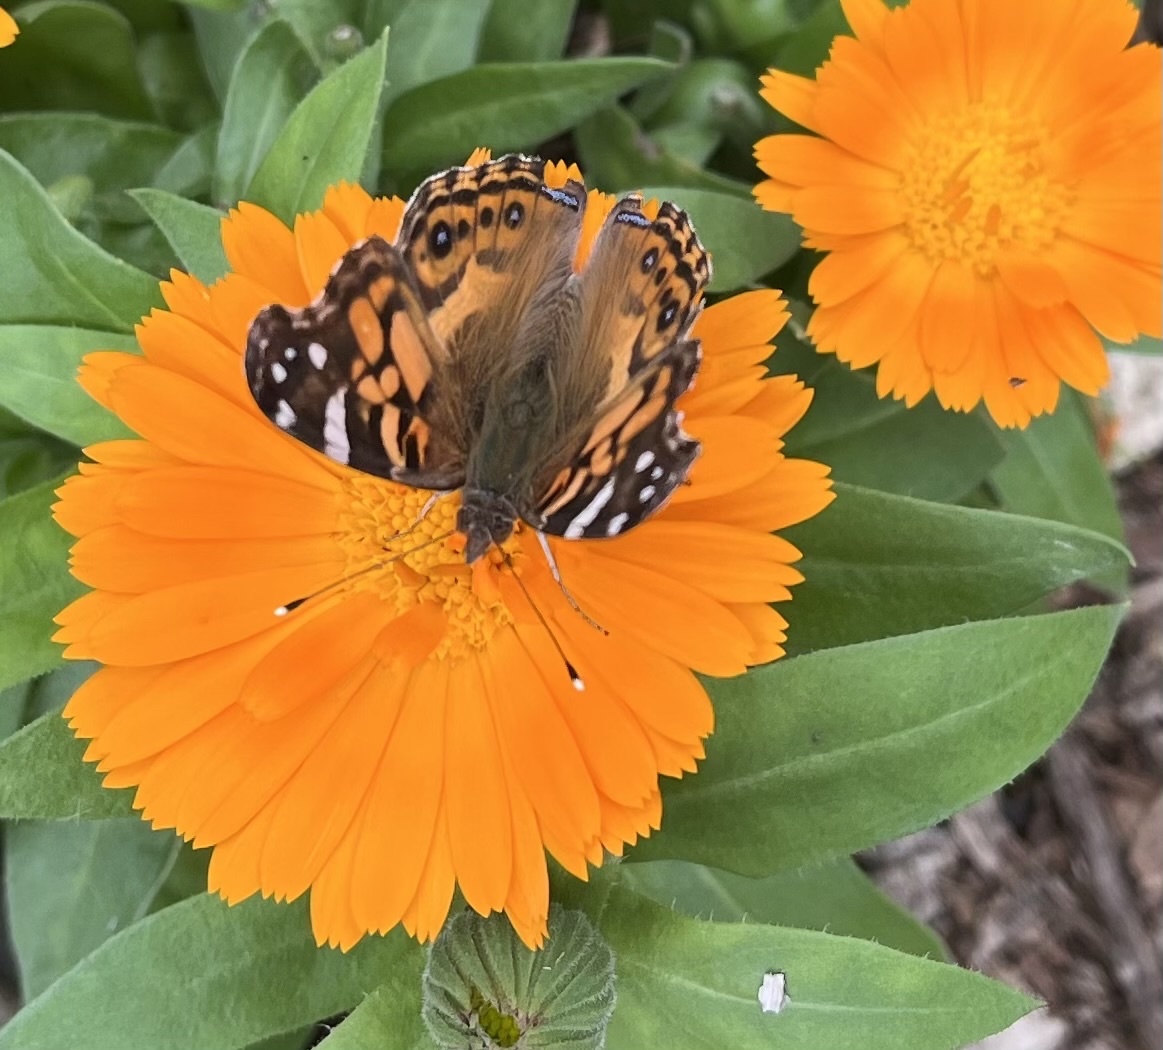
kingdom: Animalia
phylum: Arthropoda
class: Insecta
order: Lepidoptera
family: Nymphalidae
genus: Vanessa
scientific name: Vanessa virginiensis
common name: American lady
